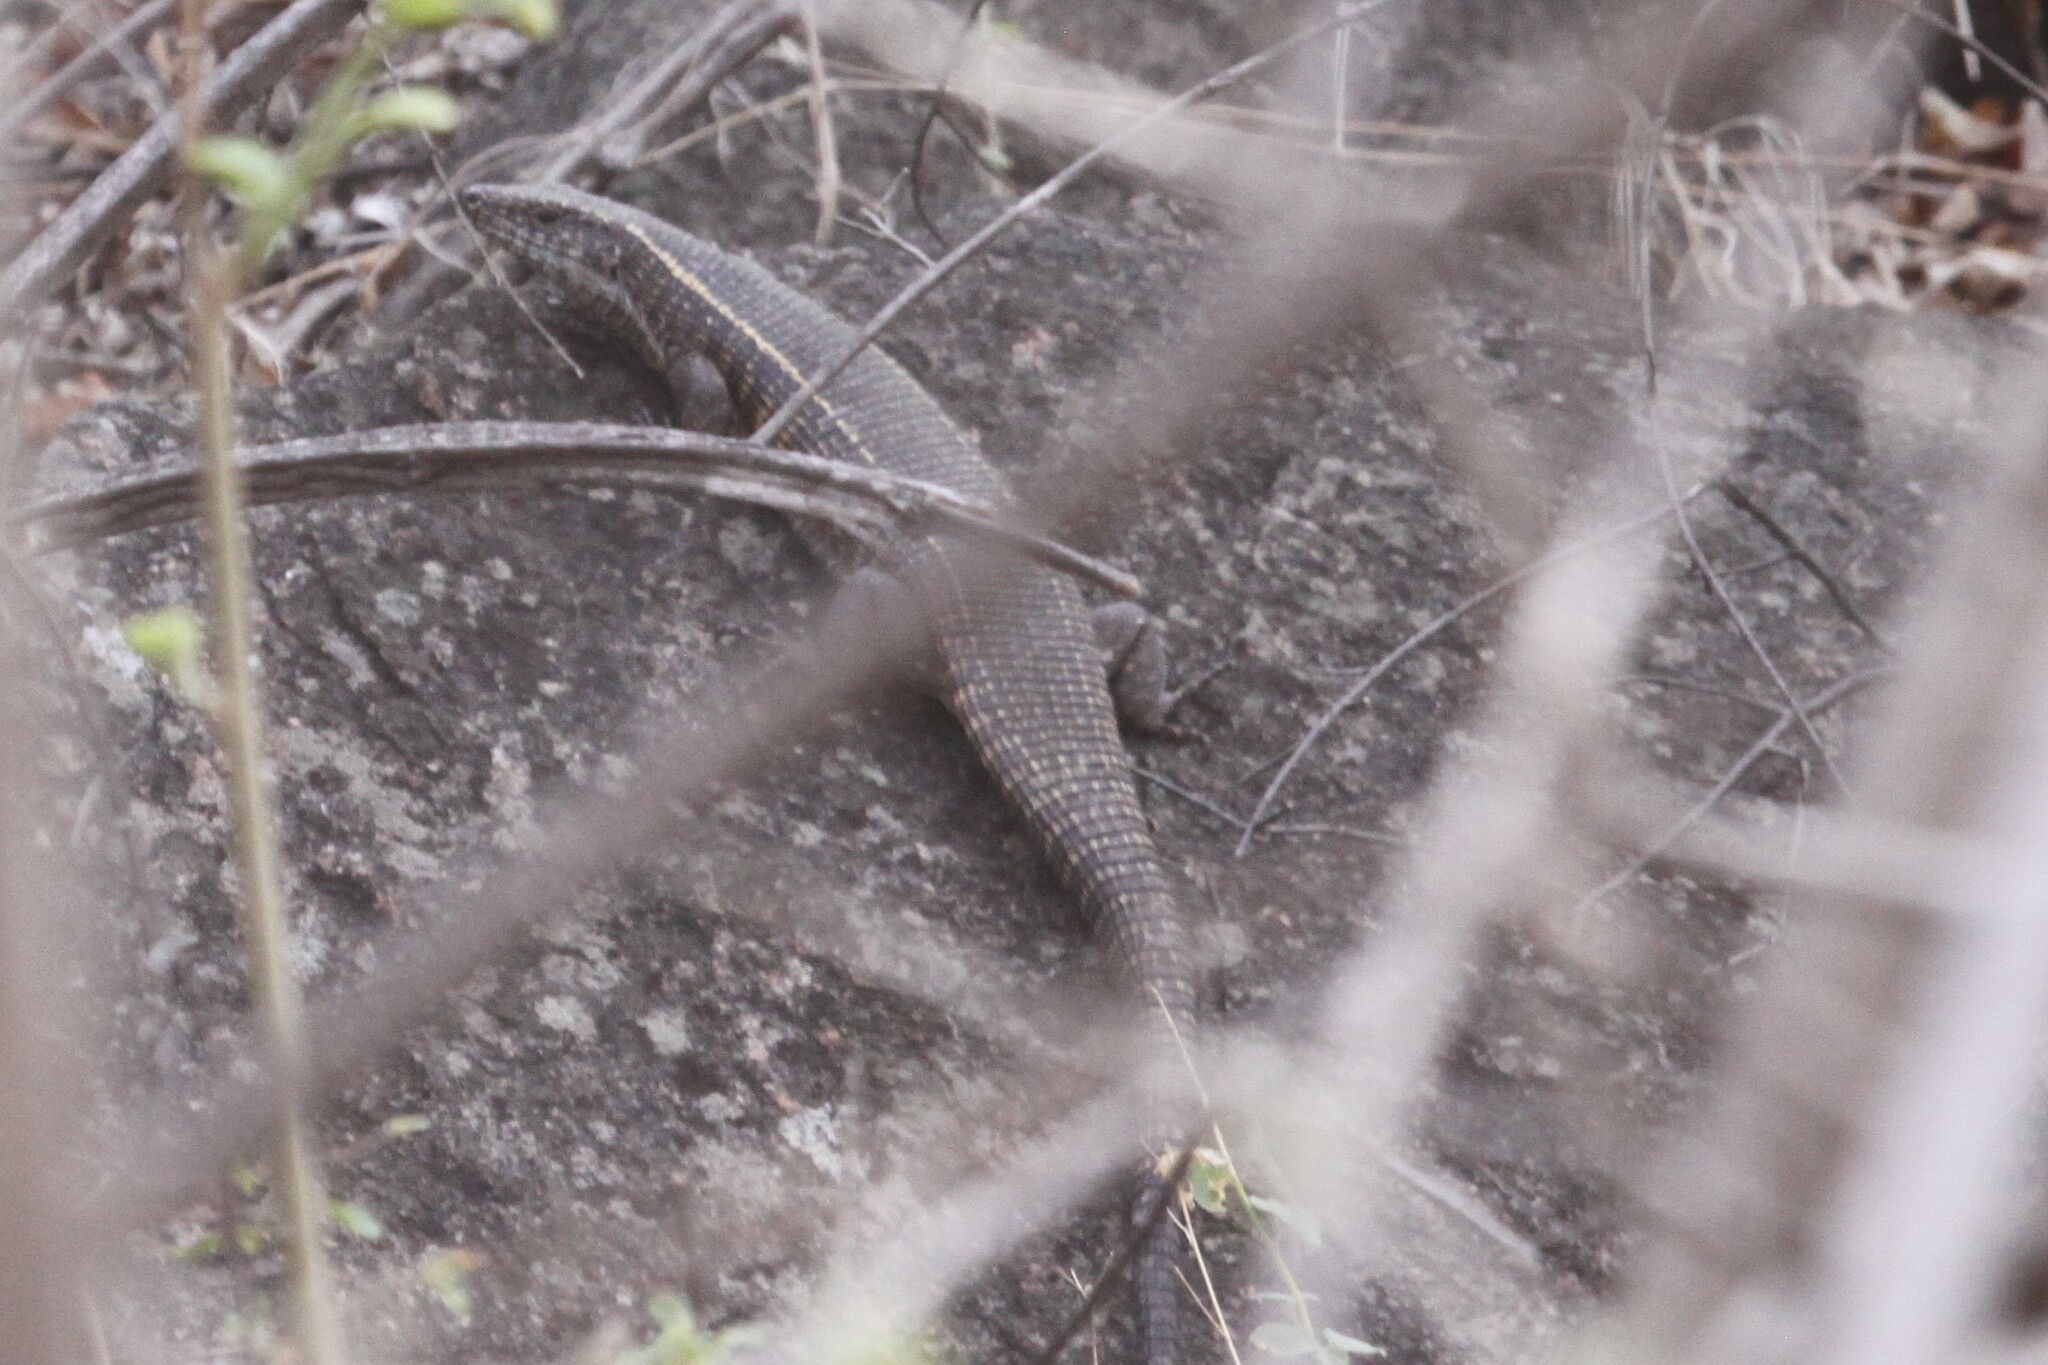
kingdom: Animalia
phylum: Chordata
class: Squamata
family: Gerrhosauridae
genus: Matobosaurus
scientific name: Matobosaurus validus
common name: Common giant plated lizard
